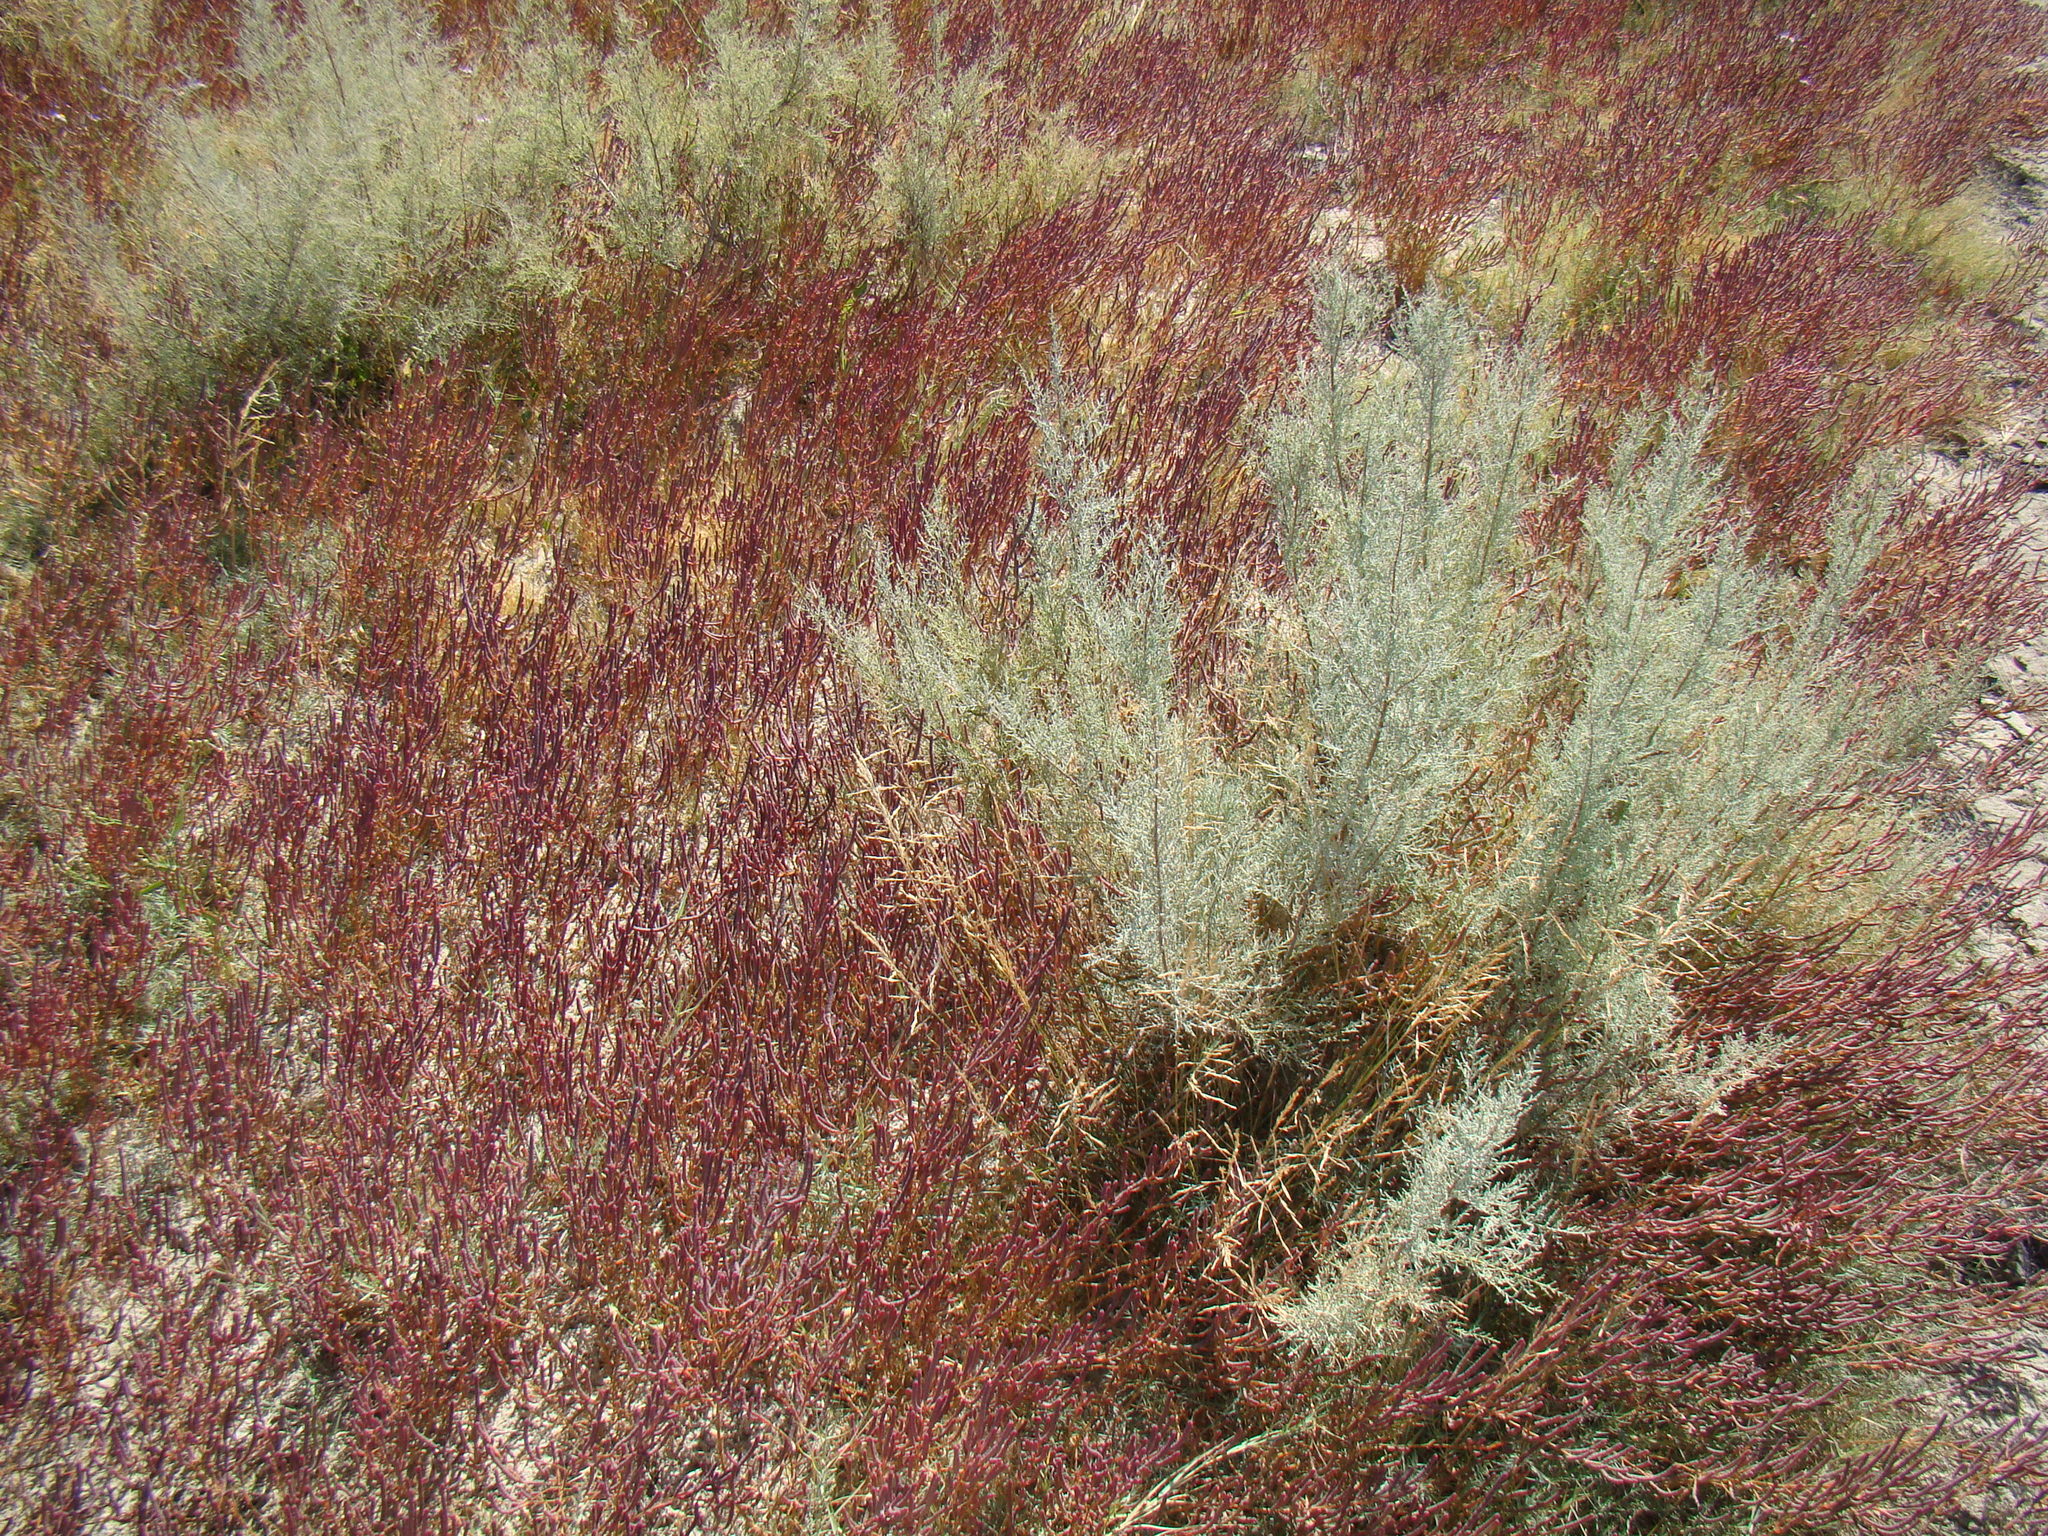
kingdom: Plantae
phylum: Tracheophyta
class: Magnoliopsida
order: Caryophyllales
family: Amaranthaceae
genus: Salicornia
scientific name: Salicornia perennans
